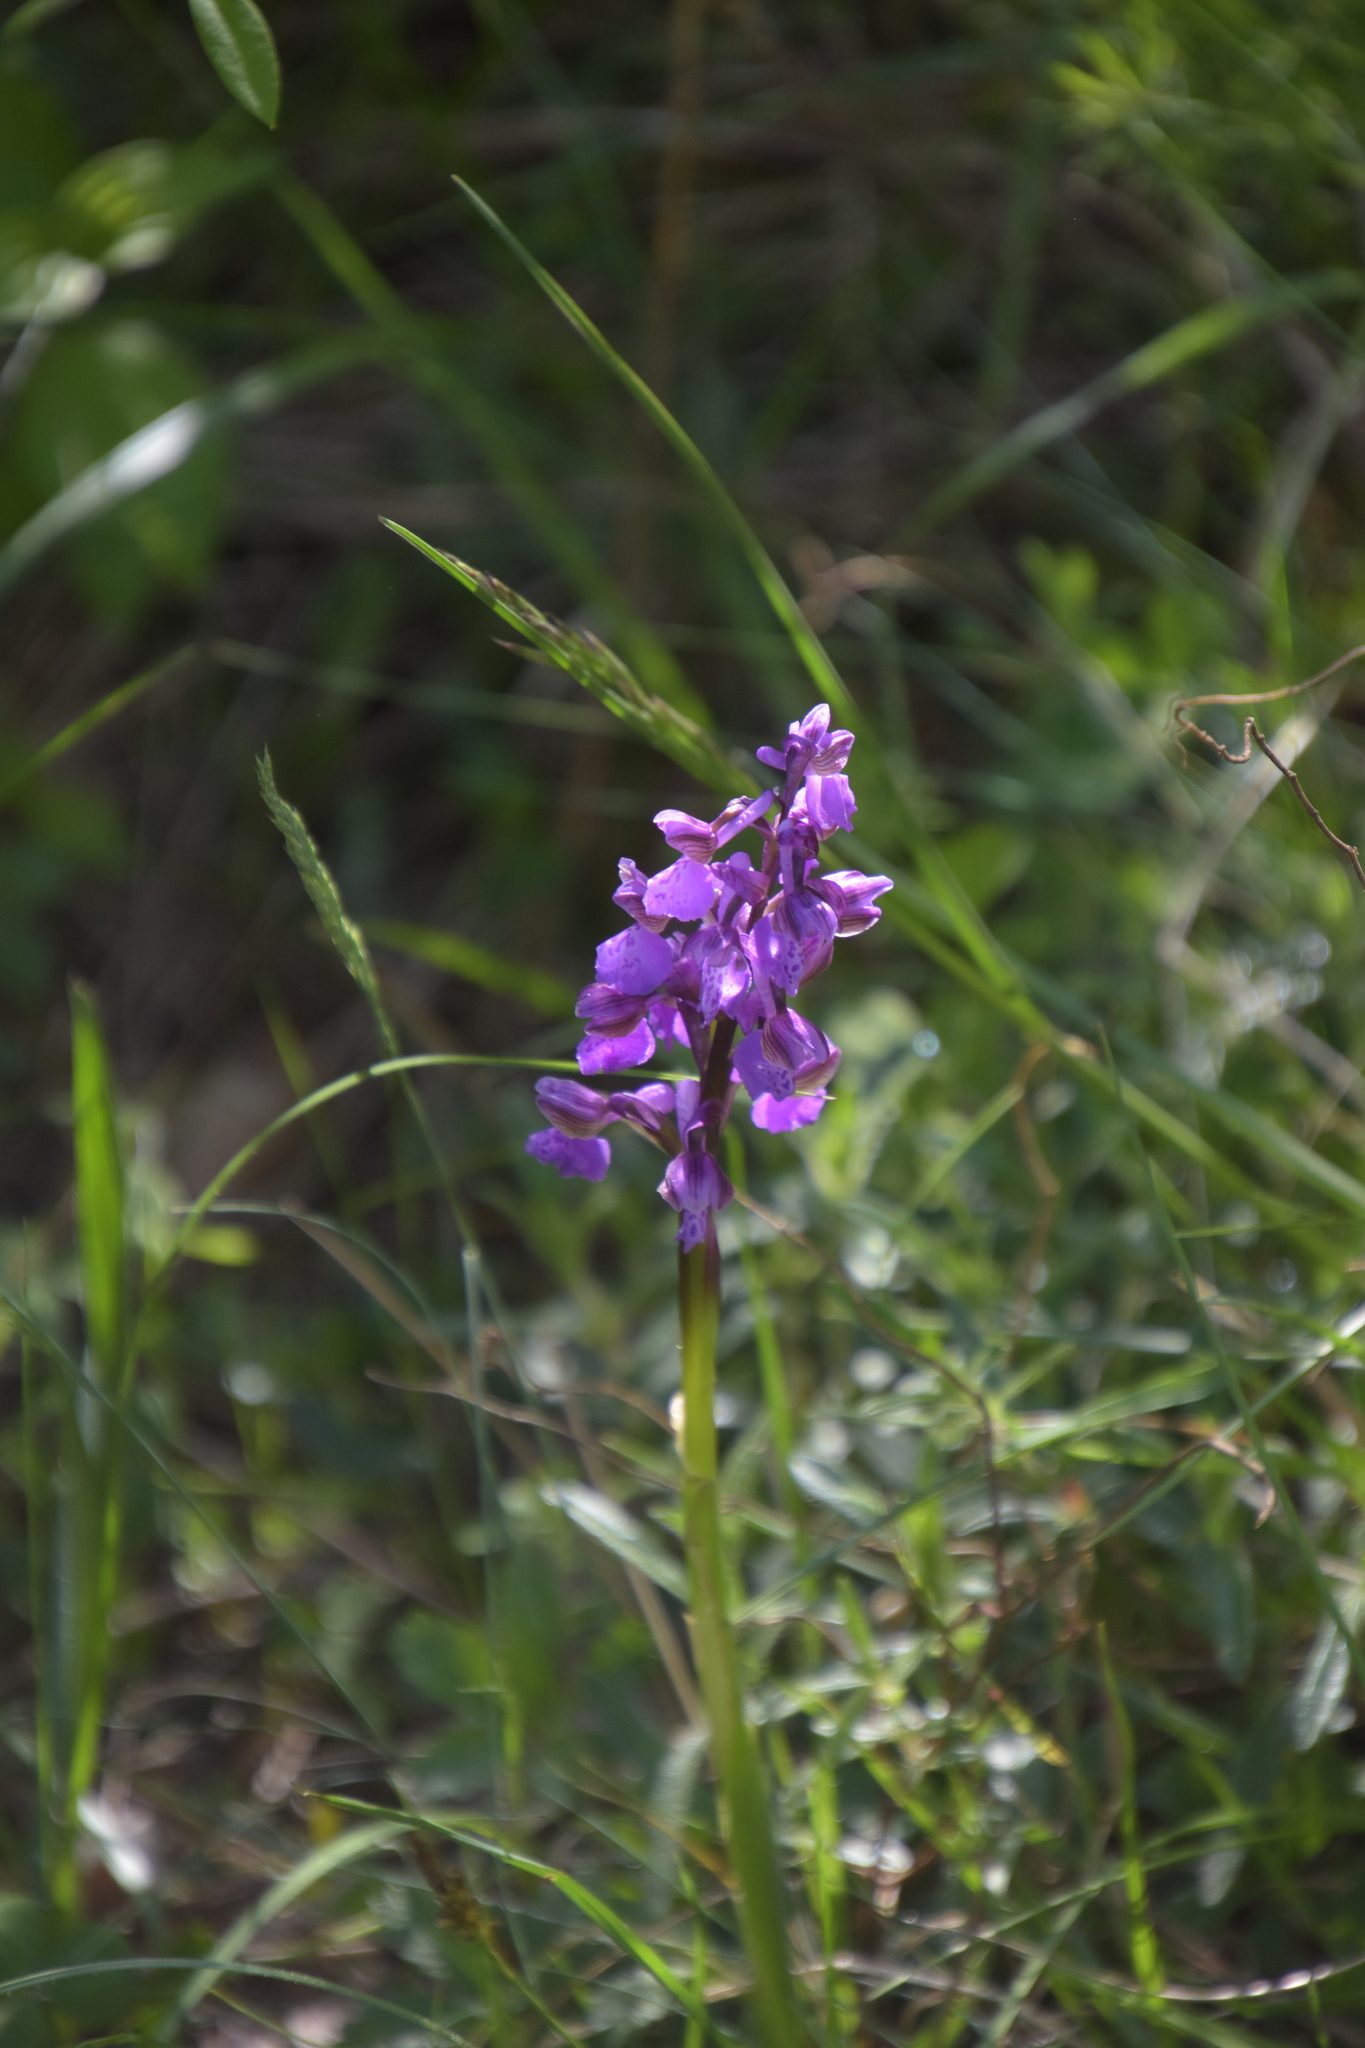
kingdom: Plantae
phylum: Tracheophyta
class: Liliopsida
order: Asparagales
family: Orchidaceae
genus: Anacamptis
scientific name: Anacamptis morio
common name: Green-winged orchid
